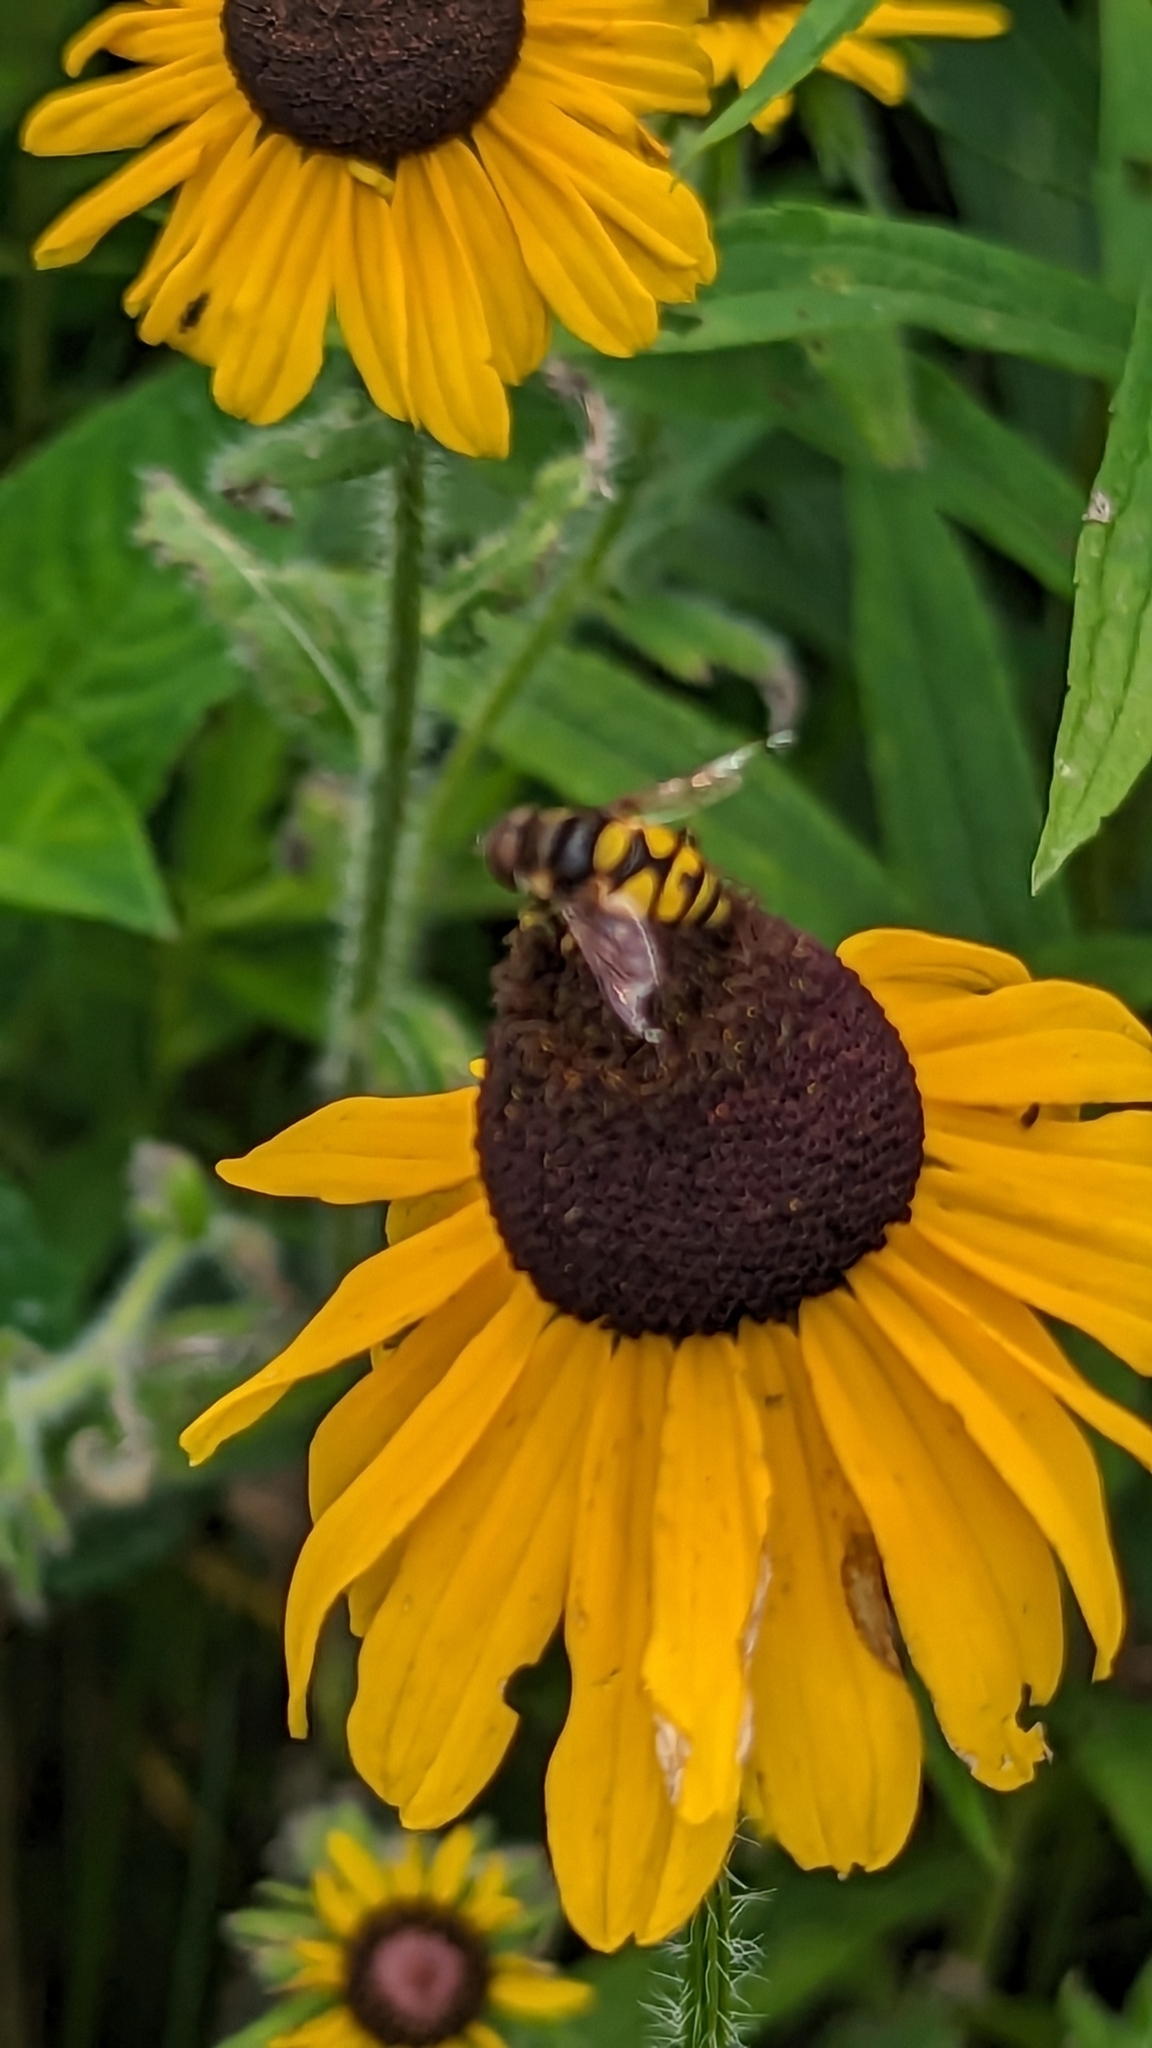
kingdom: Animalia
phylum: Arthropoda
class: Insecta
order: Diptera
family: Syrphidae
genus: Eristalis
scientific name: Eristalis transversa
